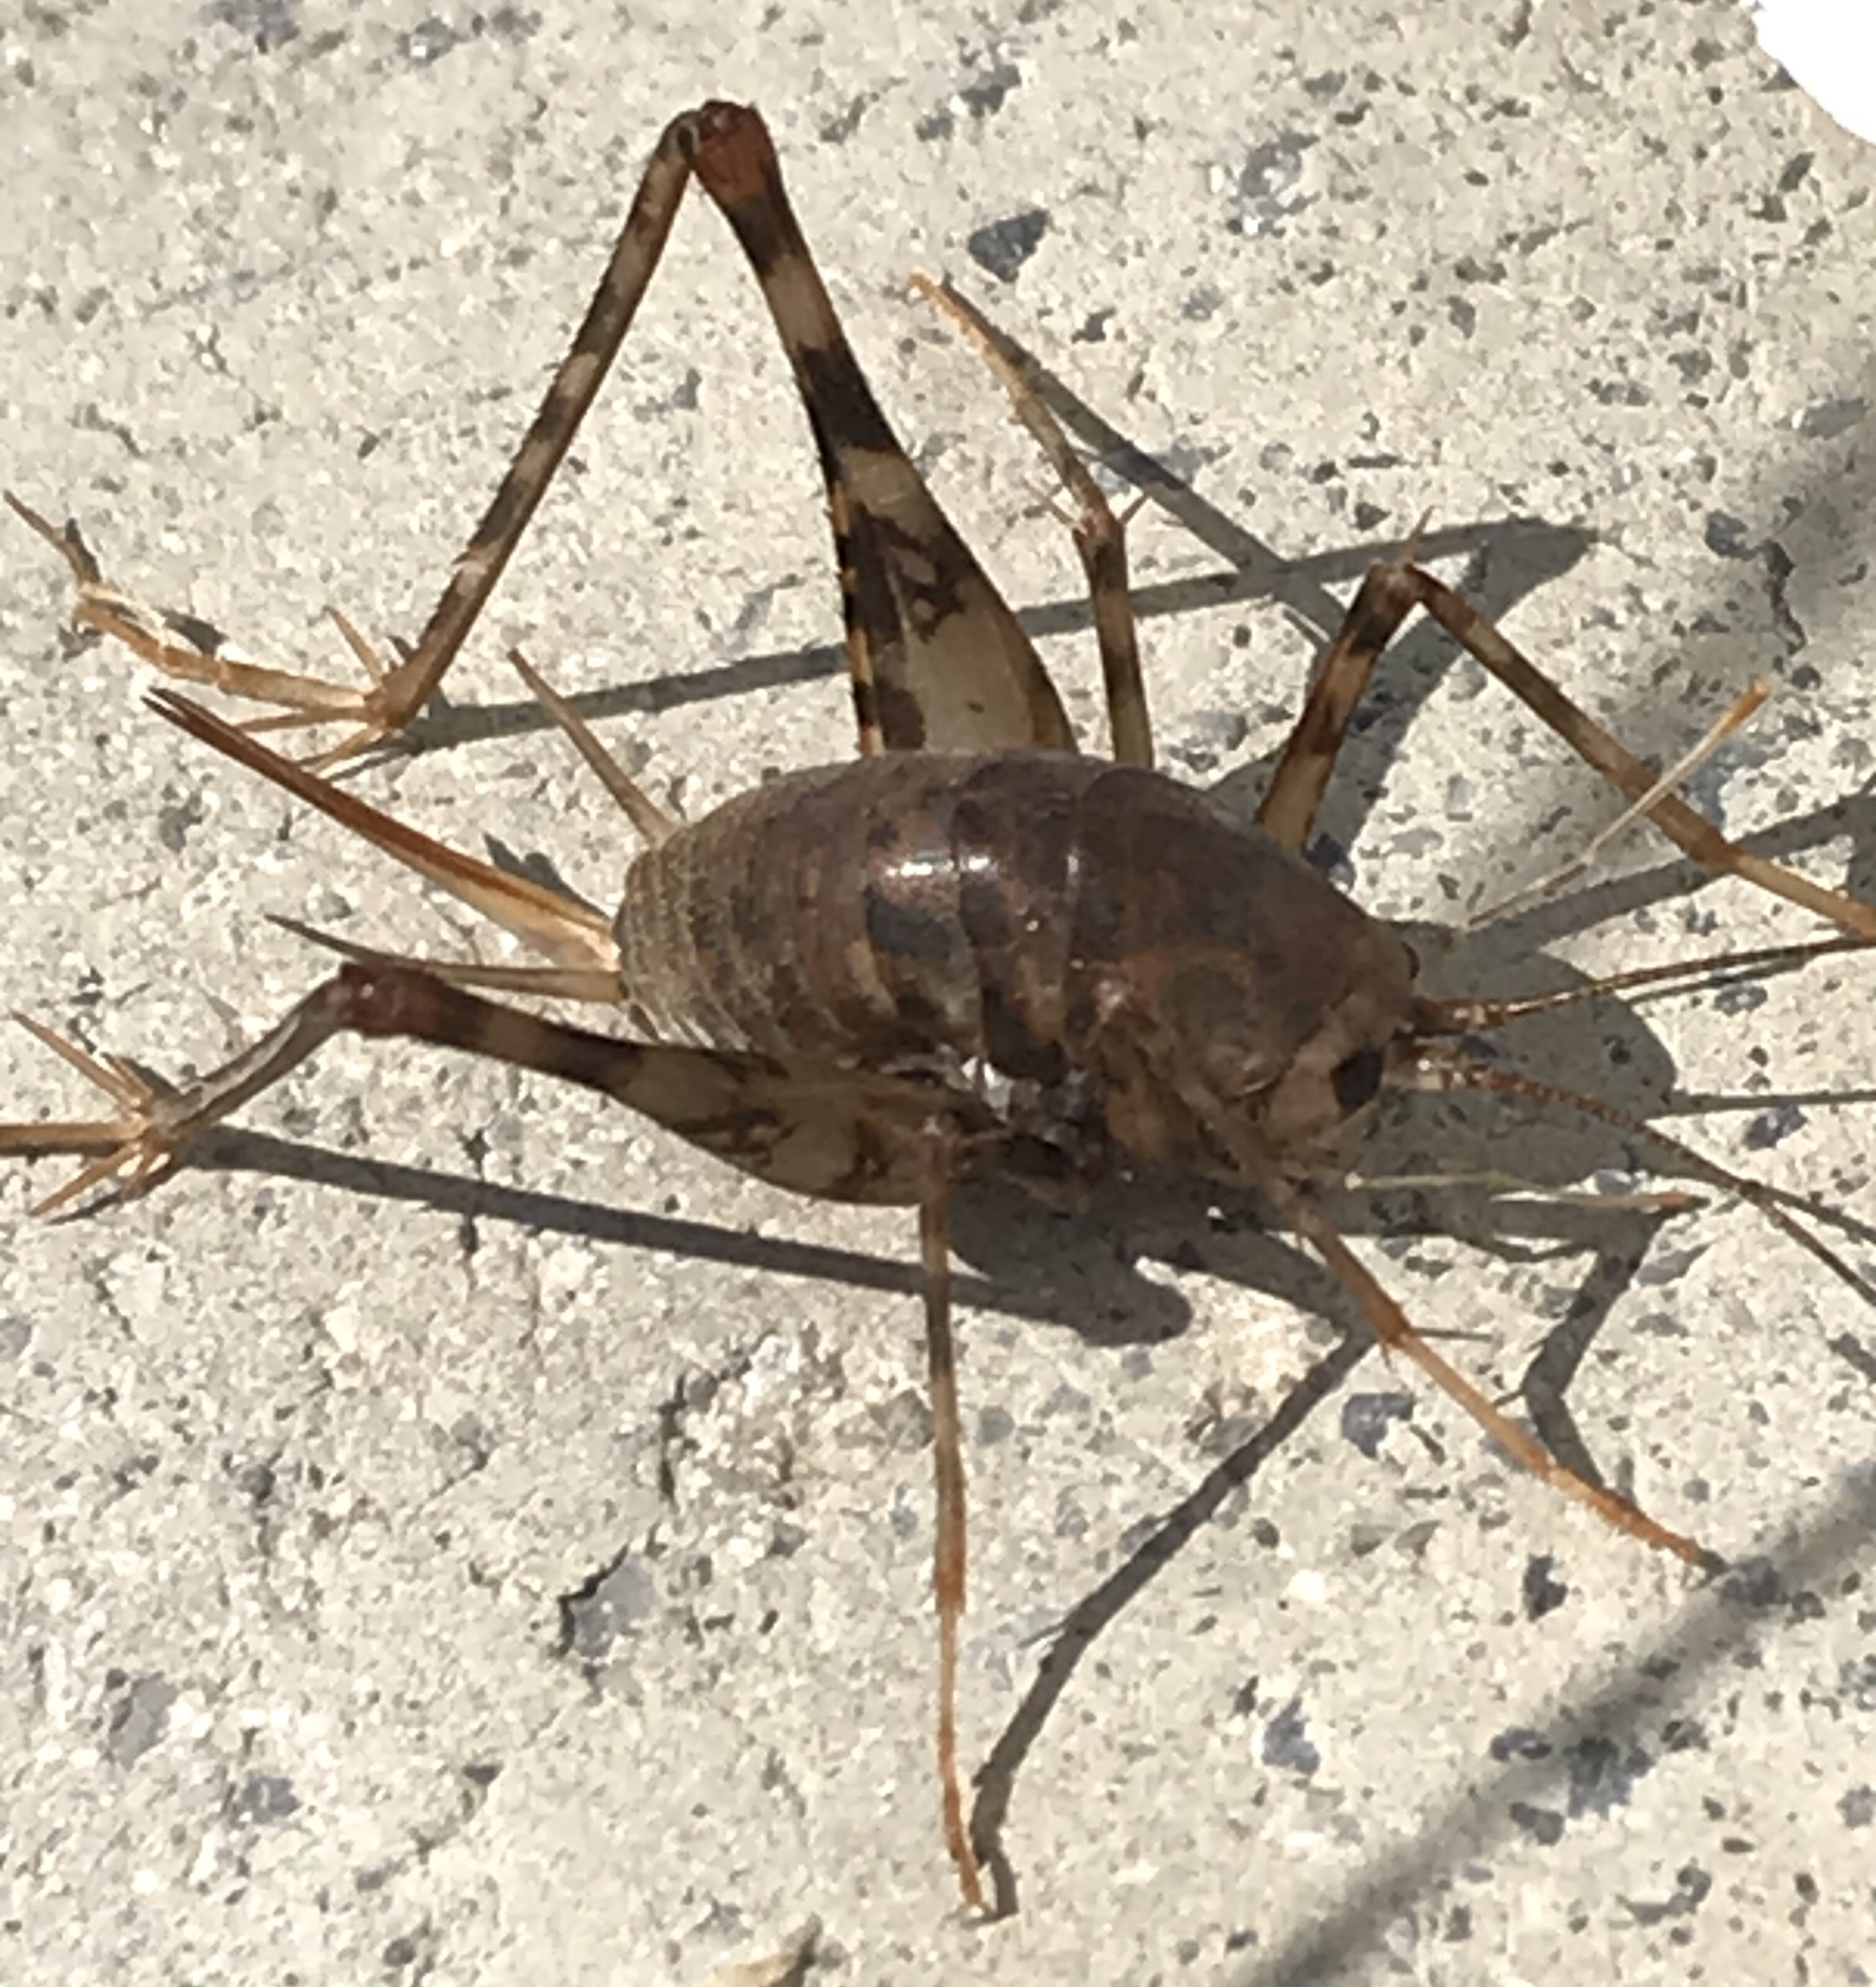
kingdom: Animalia
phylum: Arthropoda
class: Insecta
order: Orthoptera
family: Rhaphidophoridae
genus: Tachycines
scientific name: Tachycines asynamorus
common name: Greenhouse camel cricket
